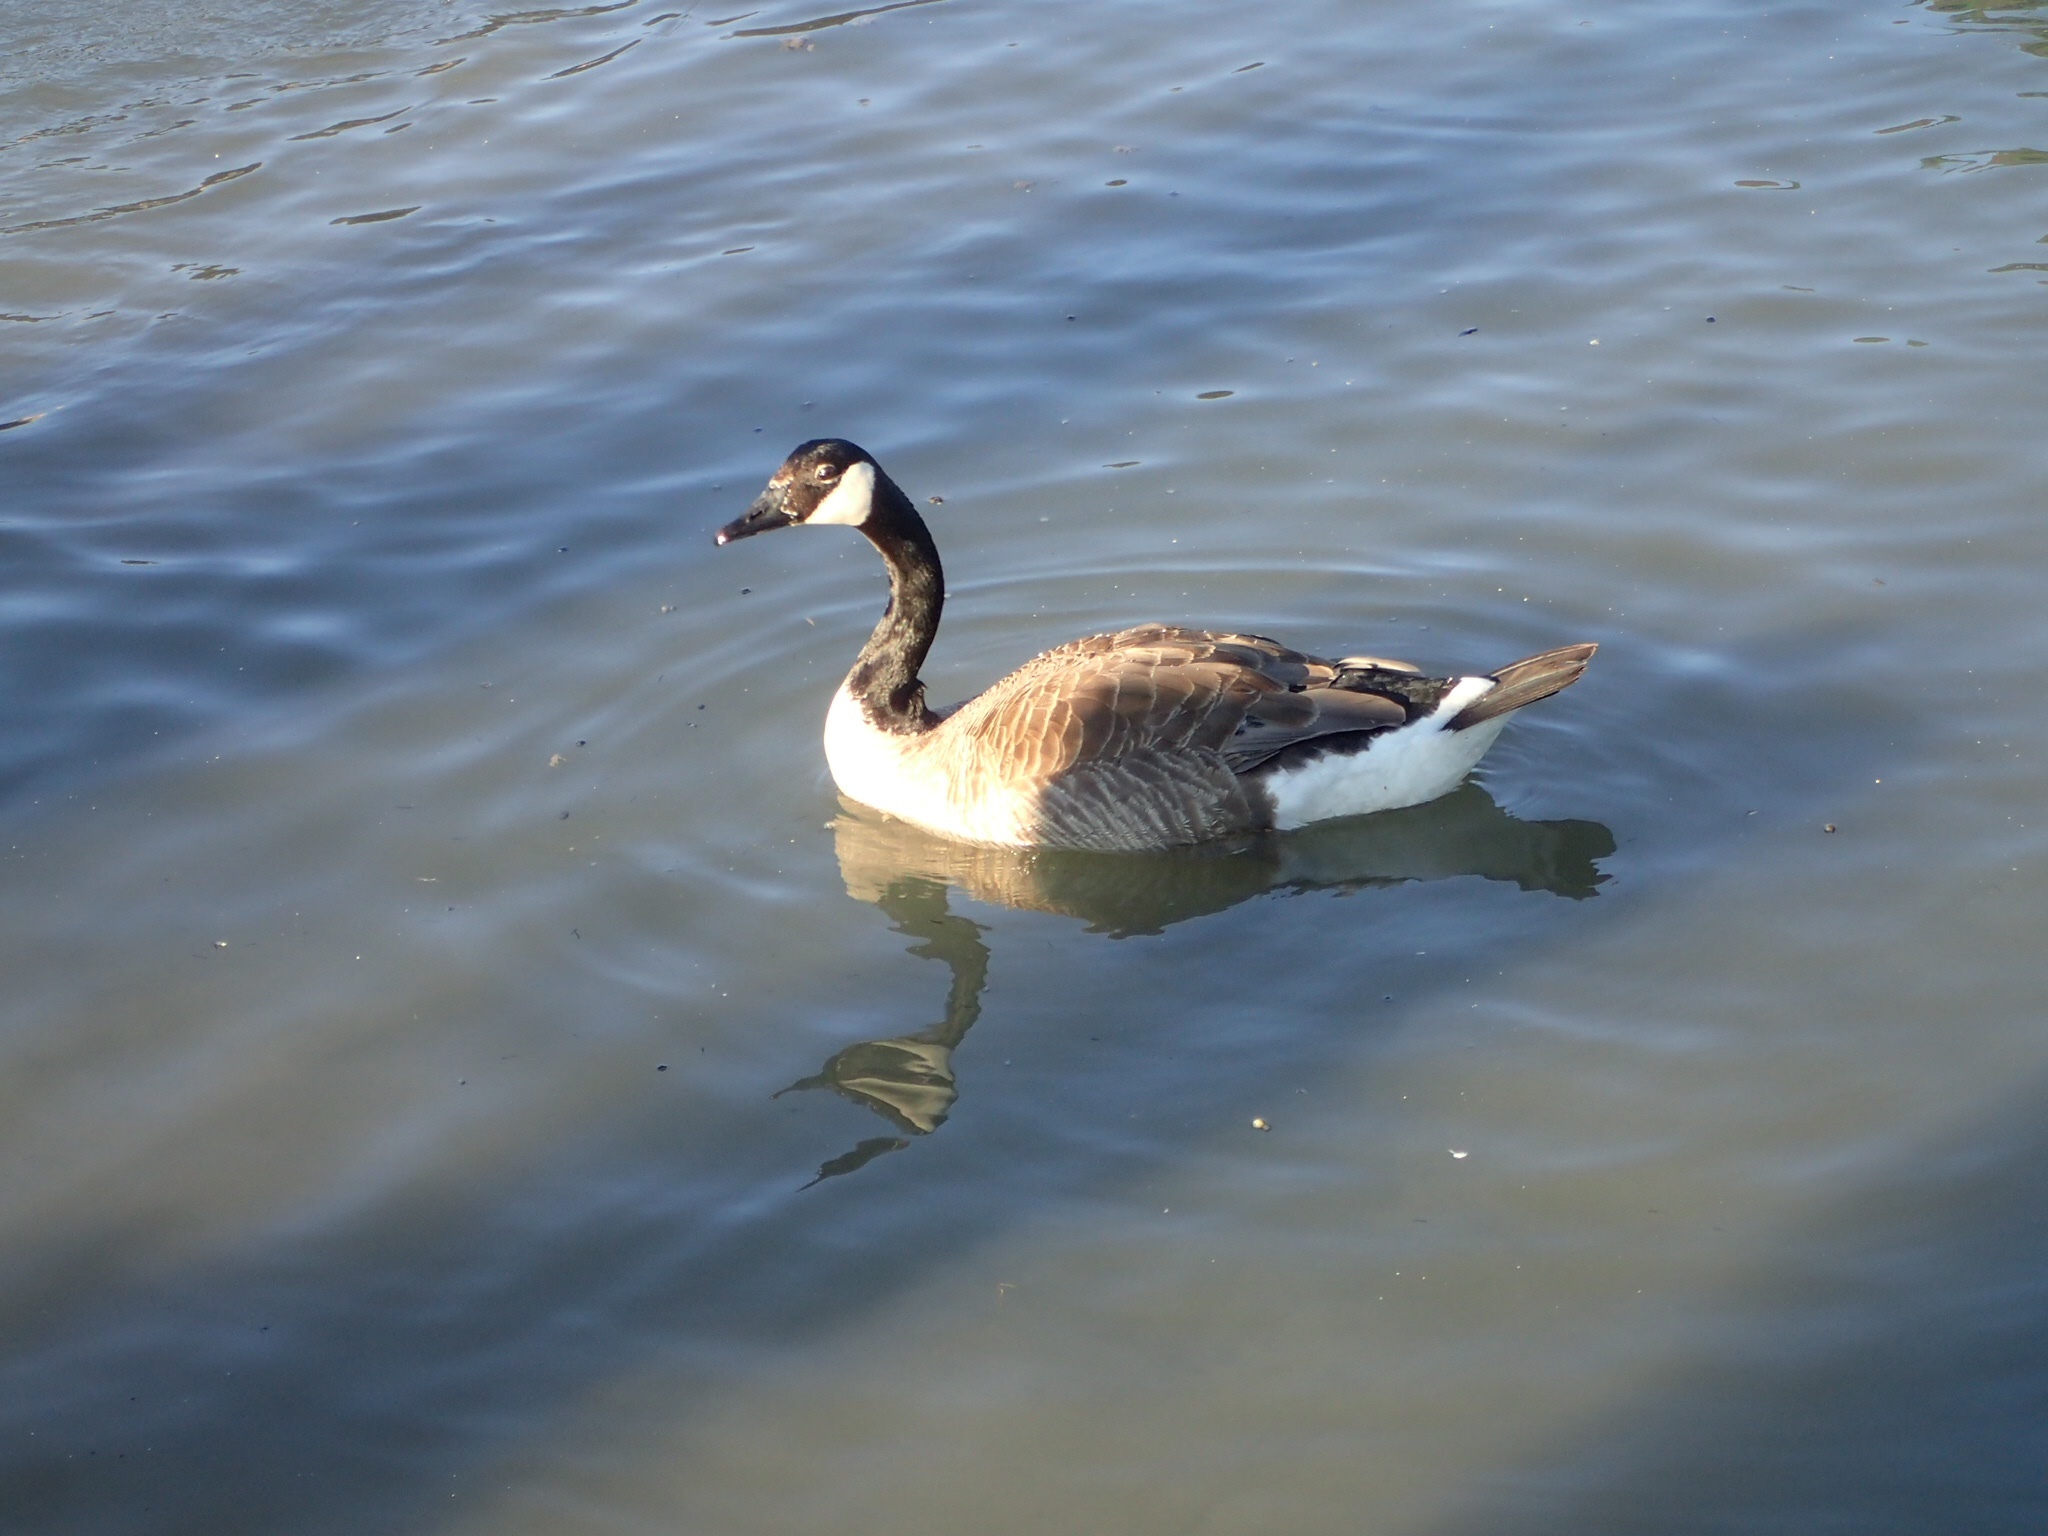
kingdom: Animalia
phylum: Chordata
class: Aves
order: Anseriformes
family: Anatidae
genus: Branta
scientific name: Branta canadensis
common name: Canada goose
